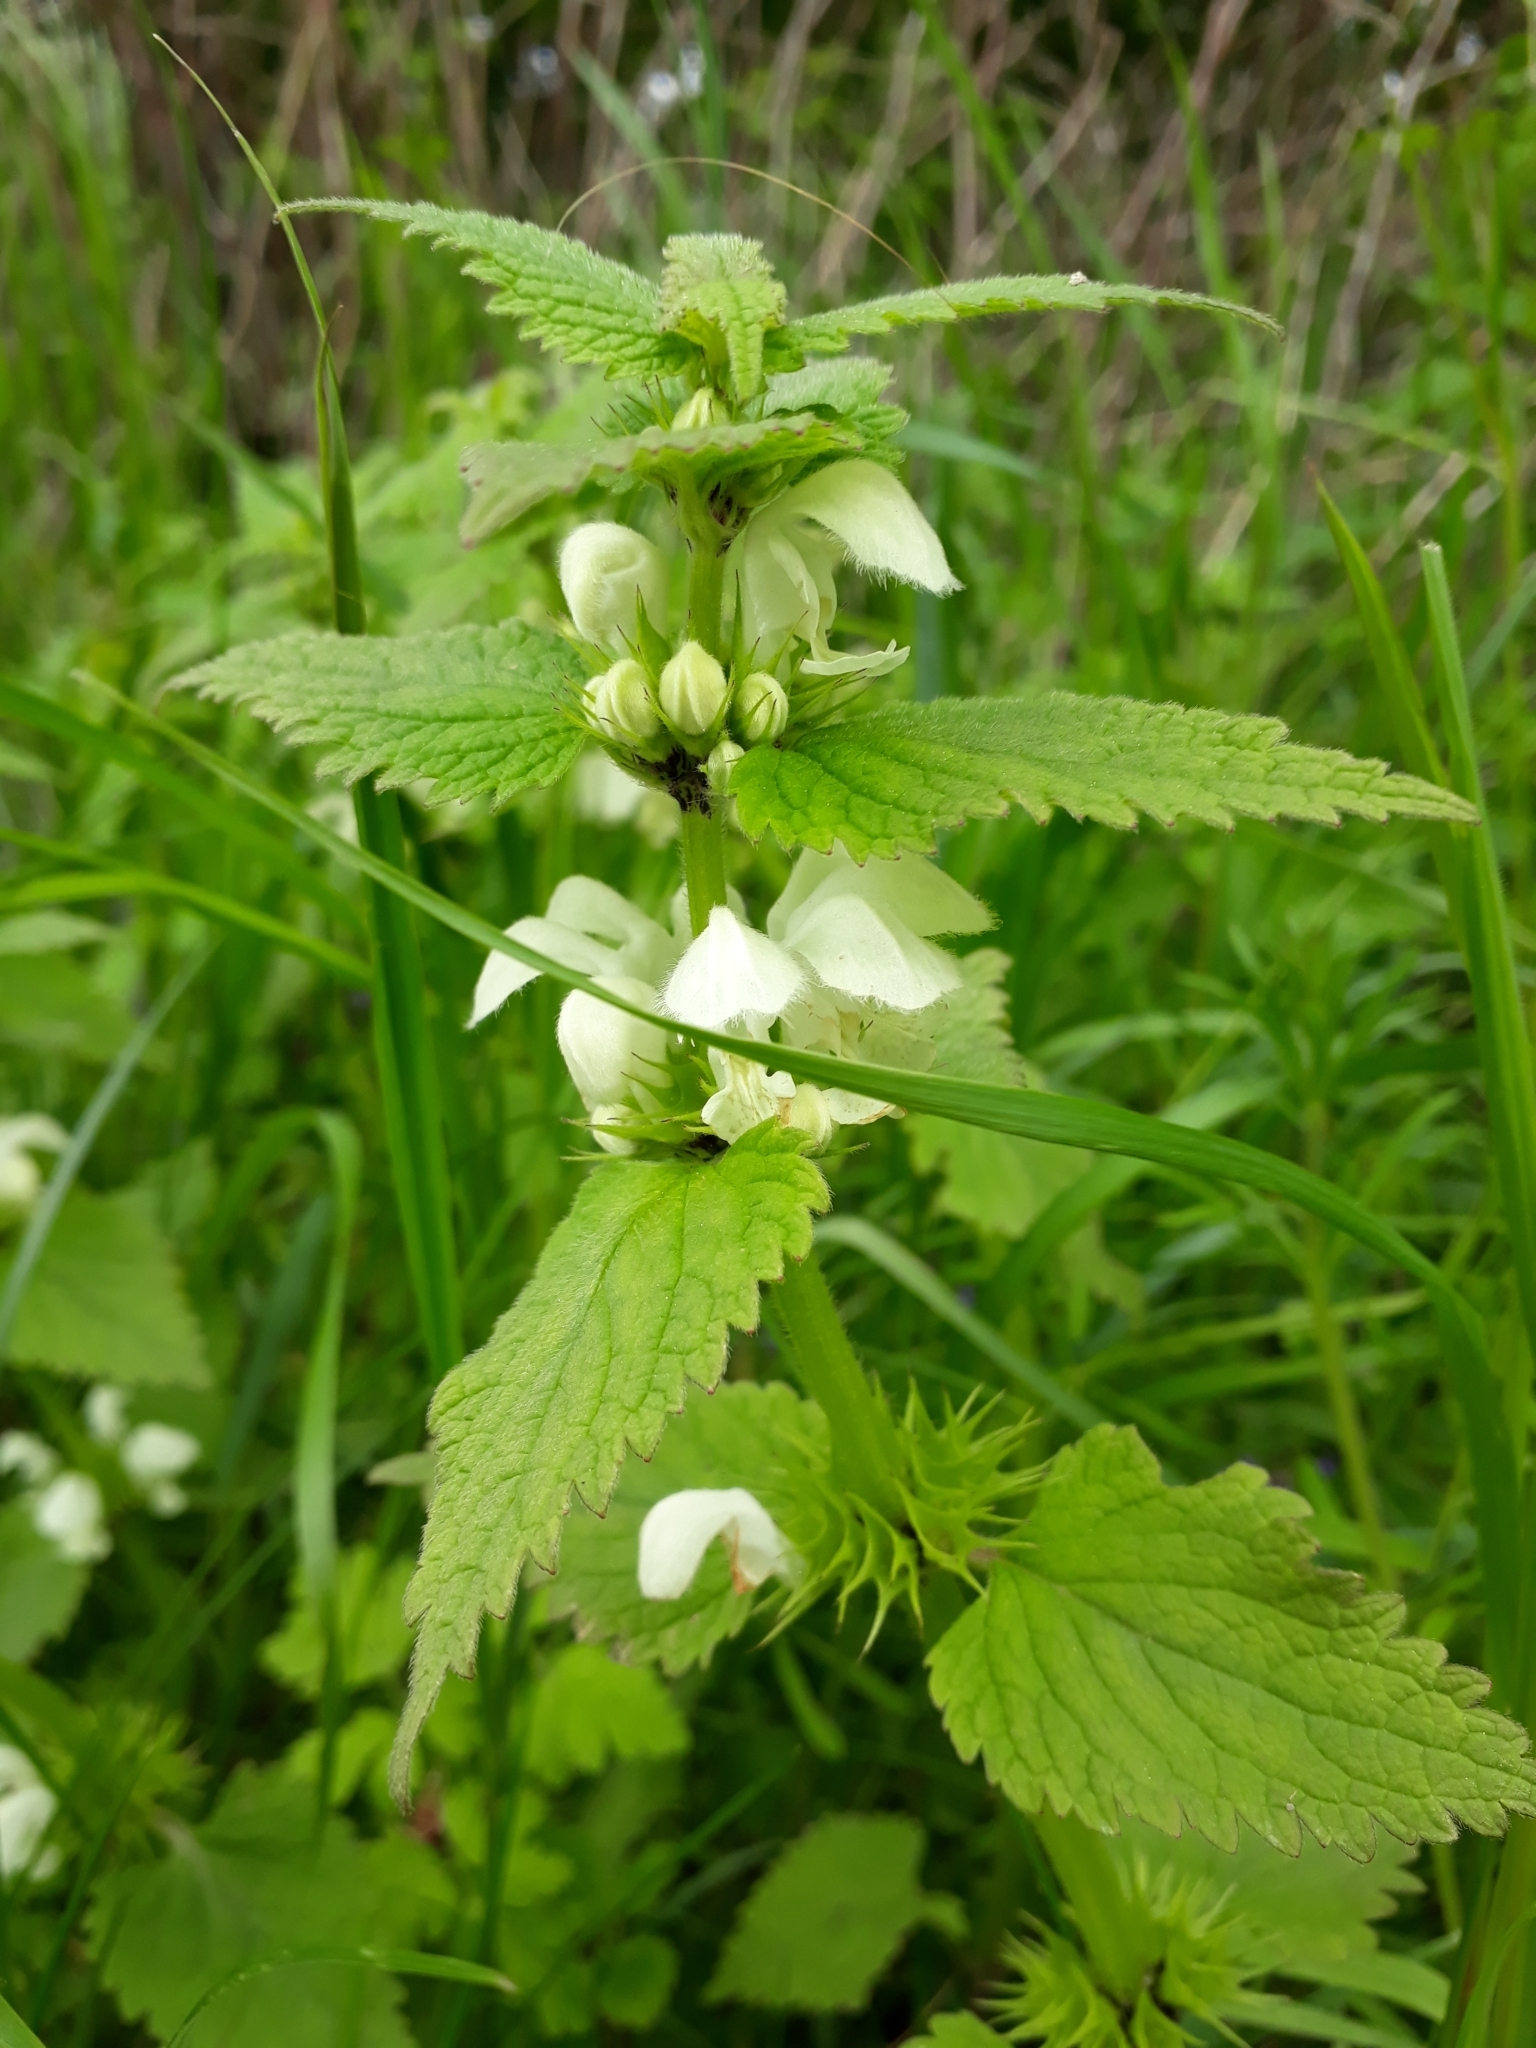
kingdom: Plantae
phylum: Tracheophyta
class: Magnoliopsida
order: Lamiales
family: Lamiaceae
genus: Lamium
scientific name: Lamium album
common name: White dead-nettle
